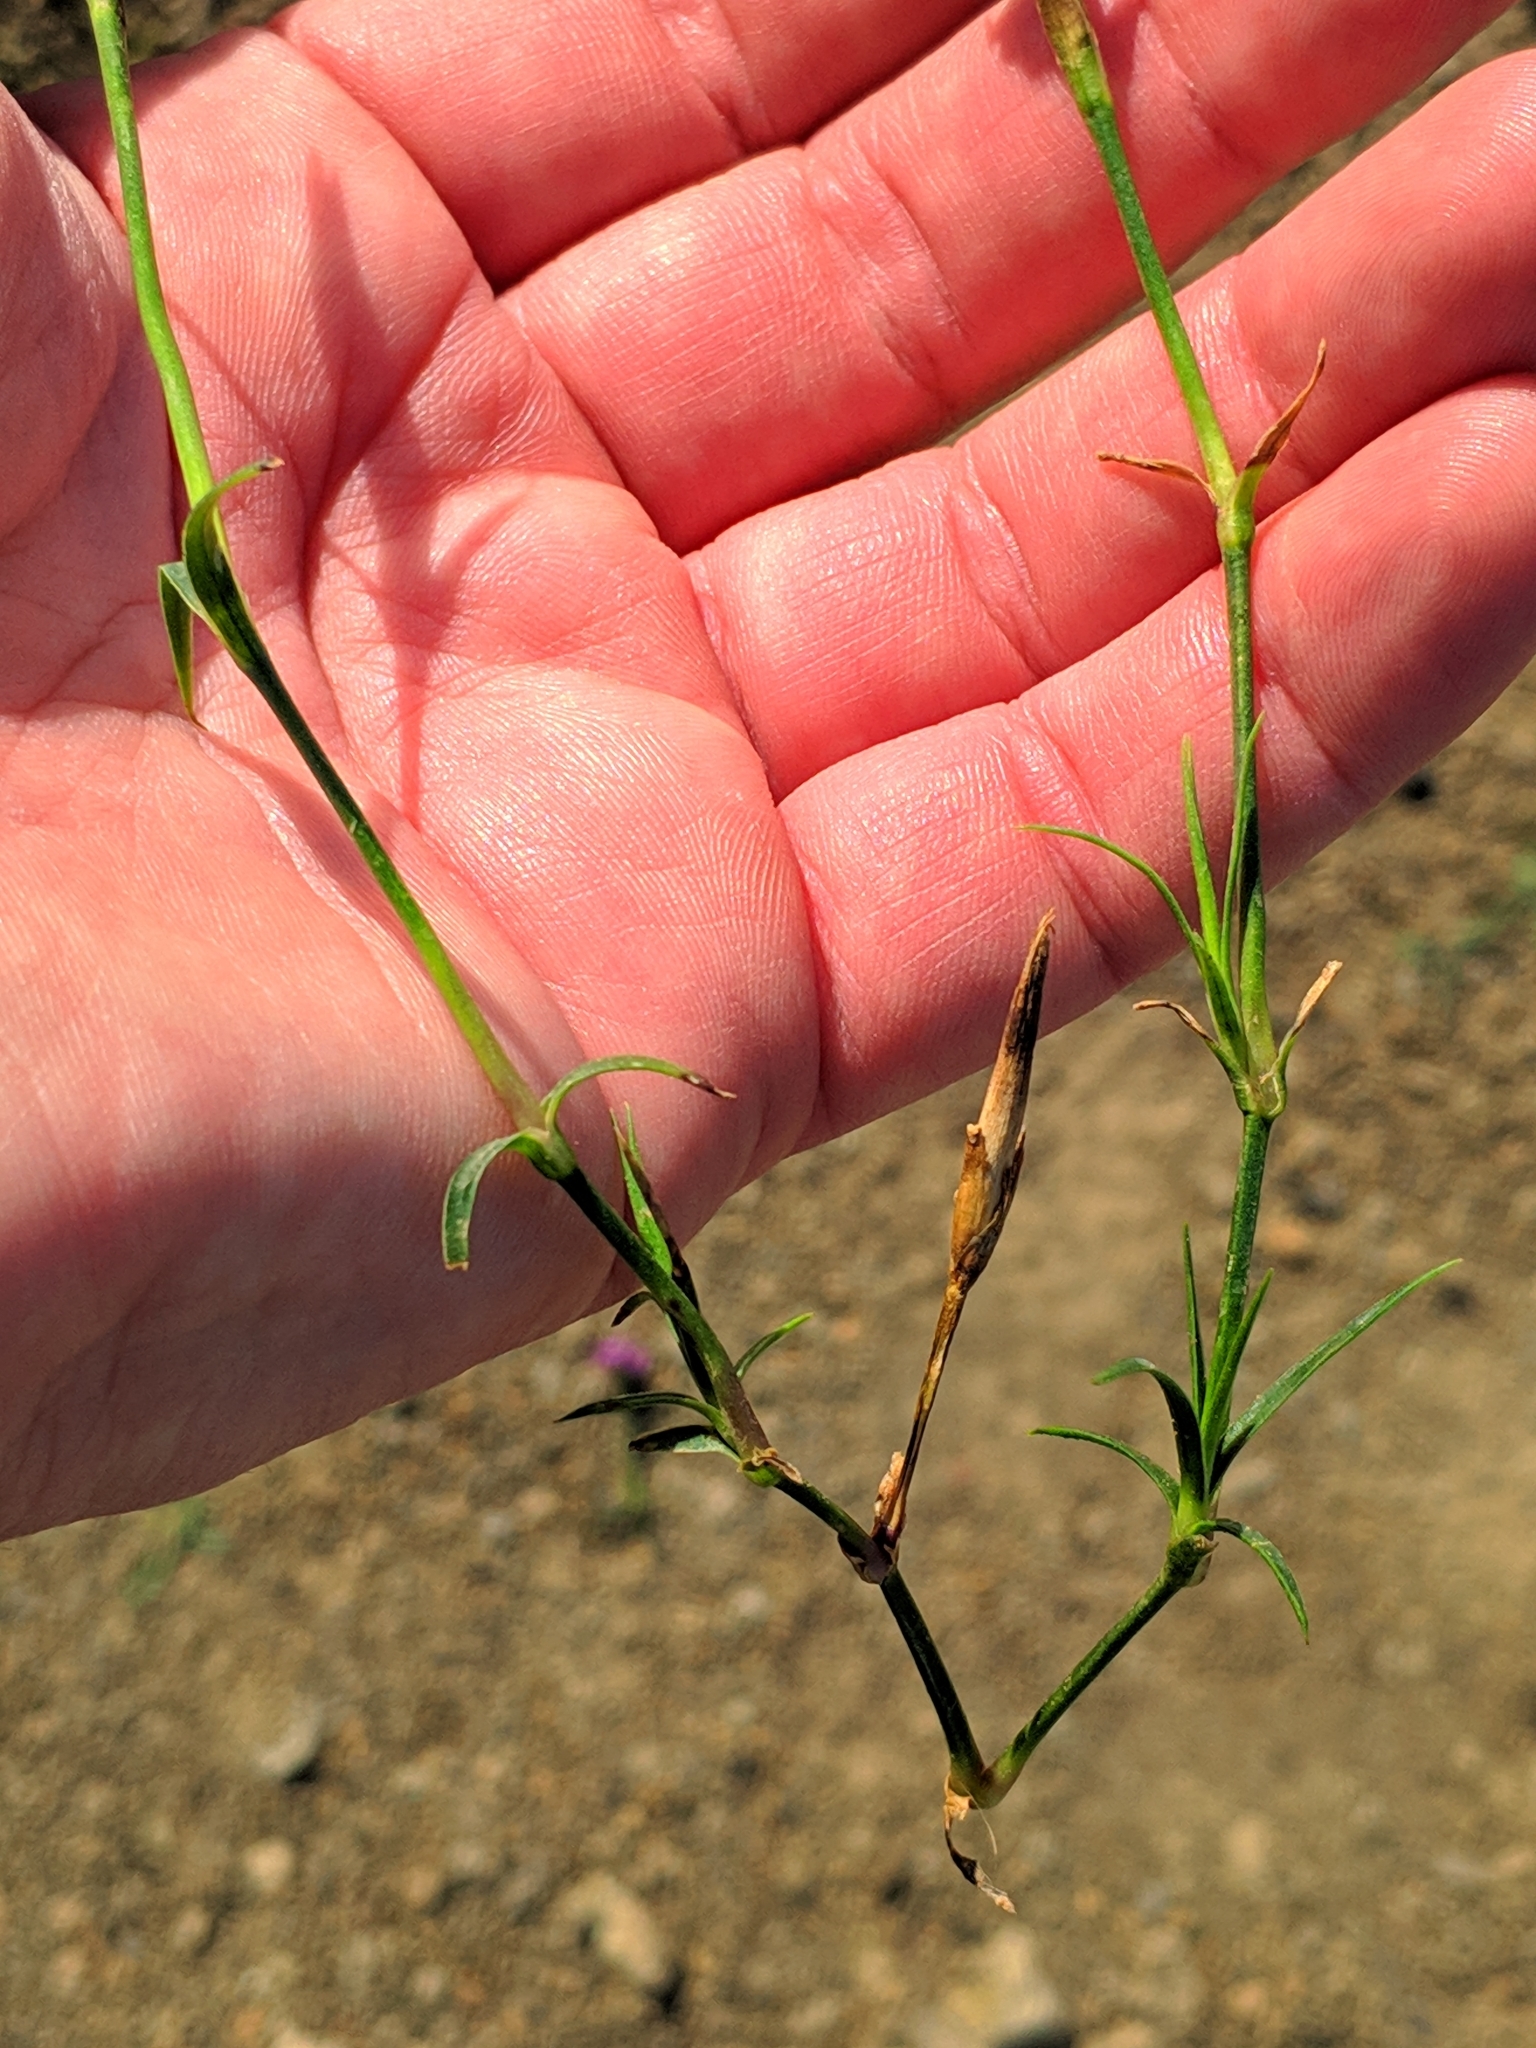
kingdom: Plantae
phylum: Tracheophyta
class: Magnoliopsida
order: Caryophyllales
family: Caryophyllaceae
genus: Dianthus
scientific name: Dianthus gallicus
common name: Jersey pink
